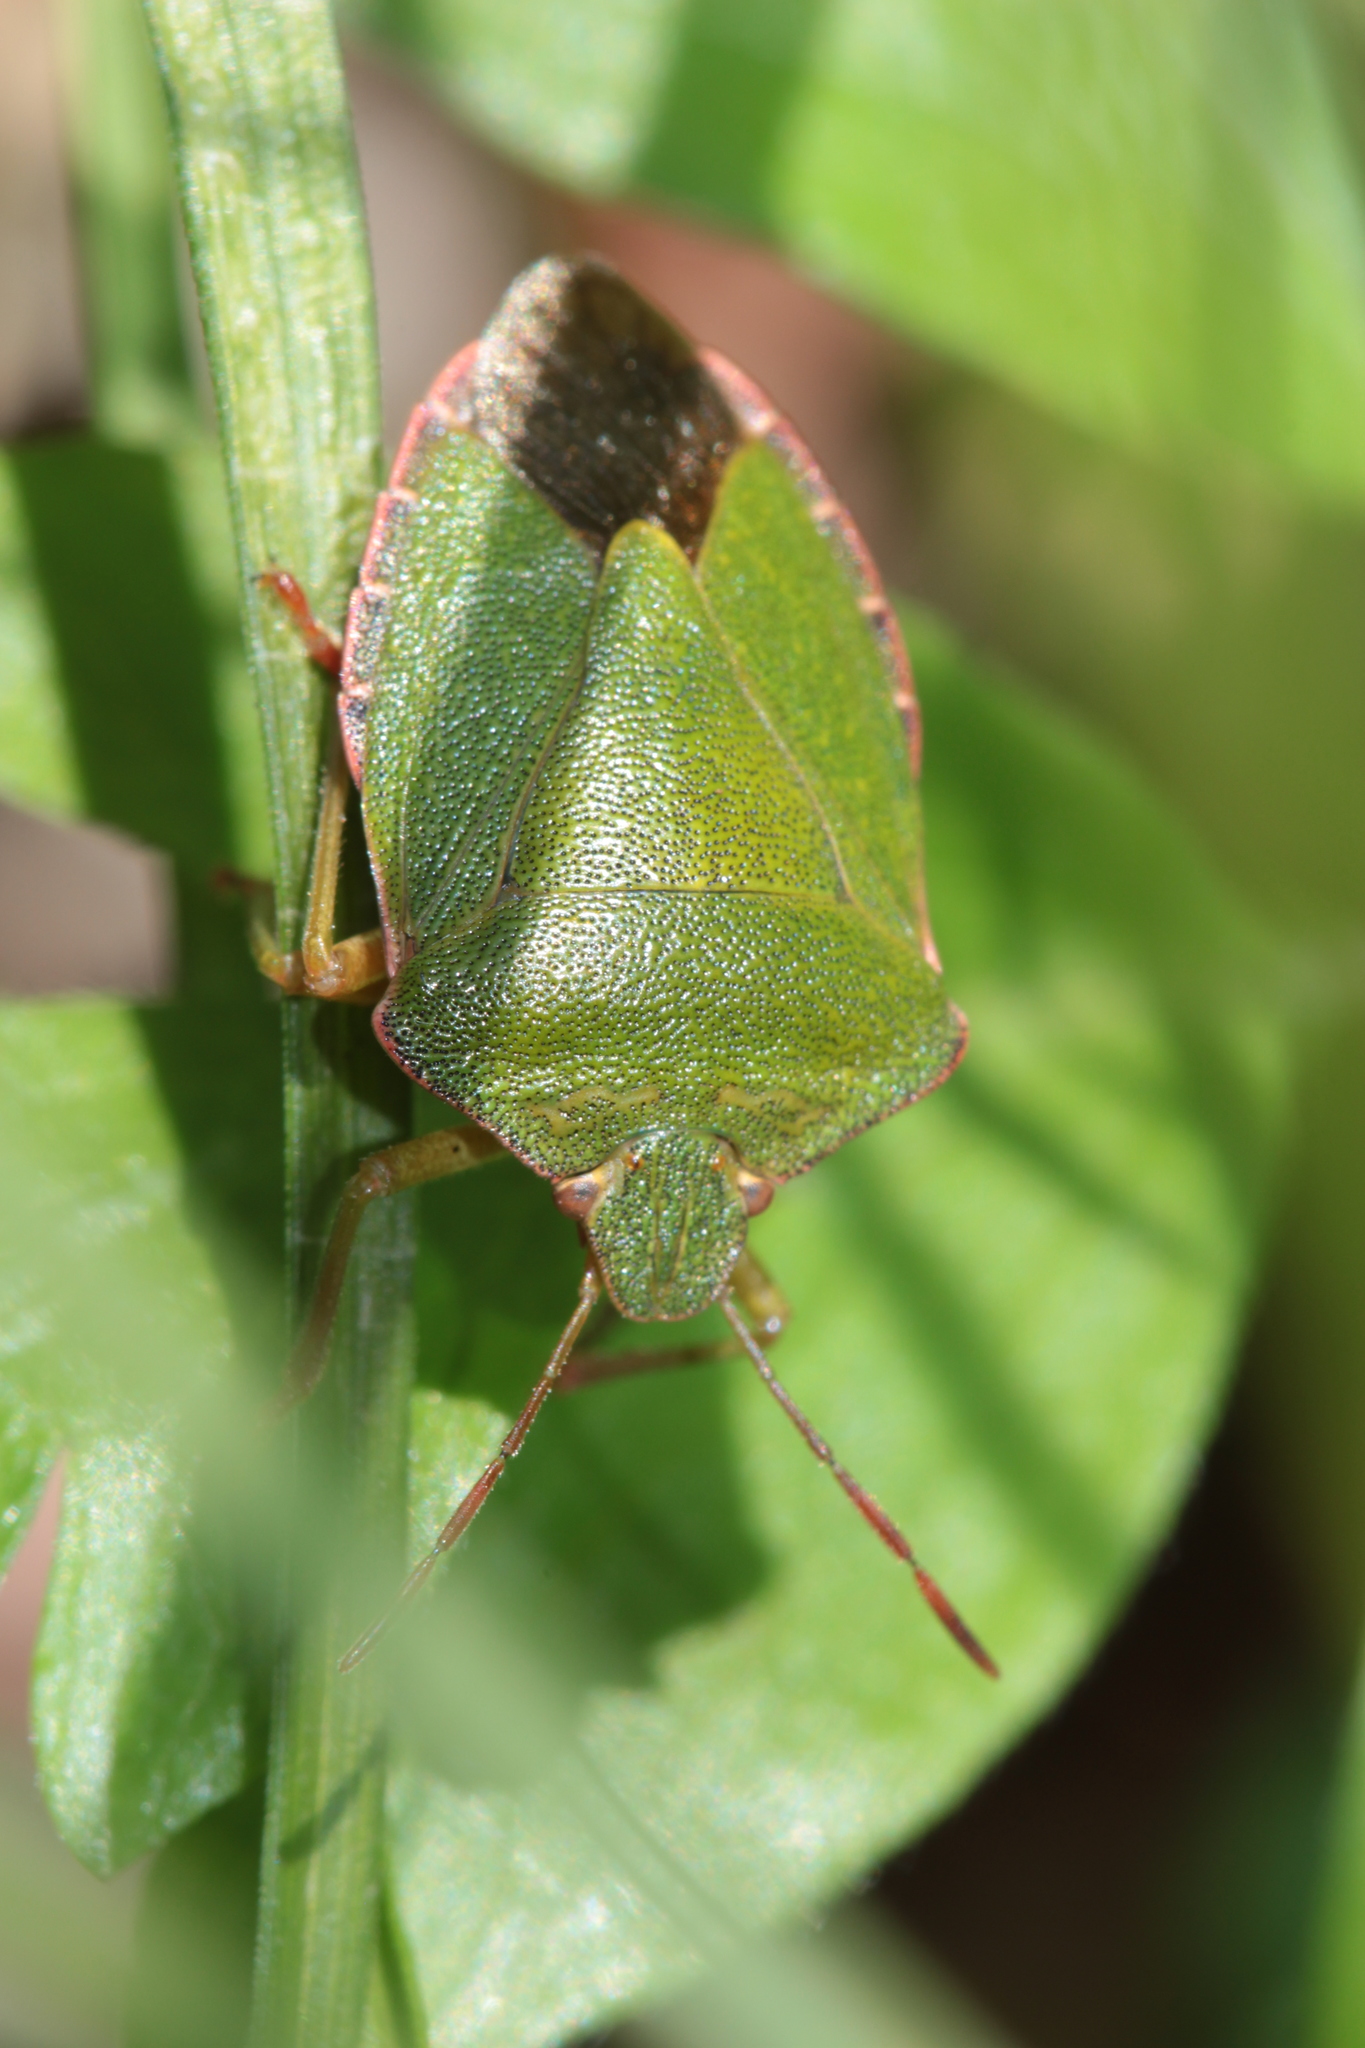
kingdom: Animalia
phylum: Arthropoda
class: Insecta
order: Hemiptera
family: Pentatomidae
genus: Palomena
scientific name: Palomena prasina
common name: Green shieldbug
